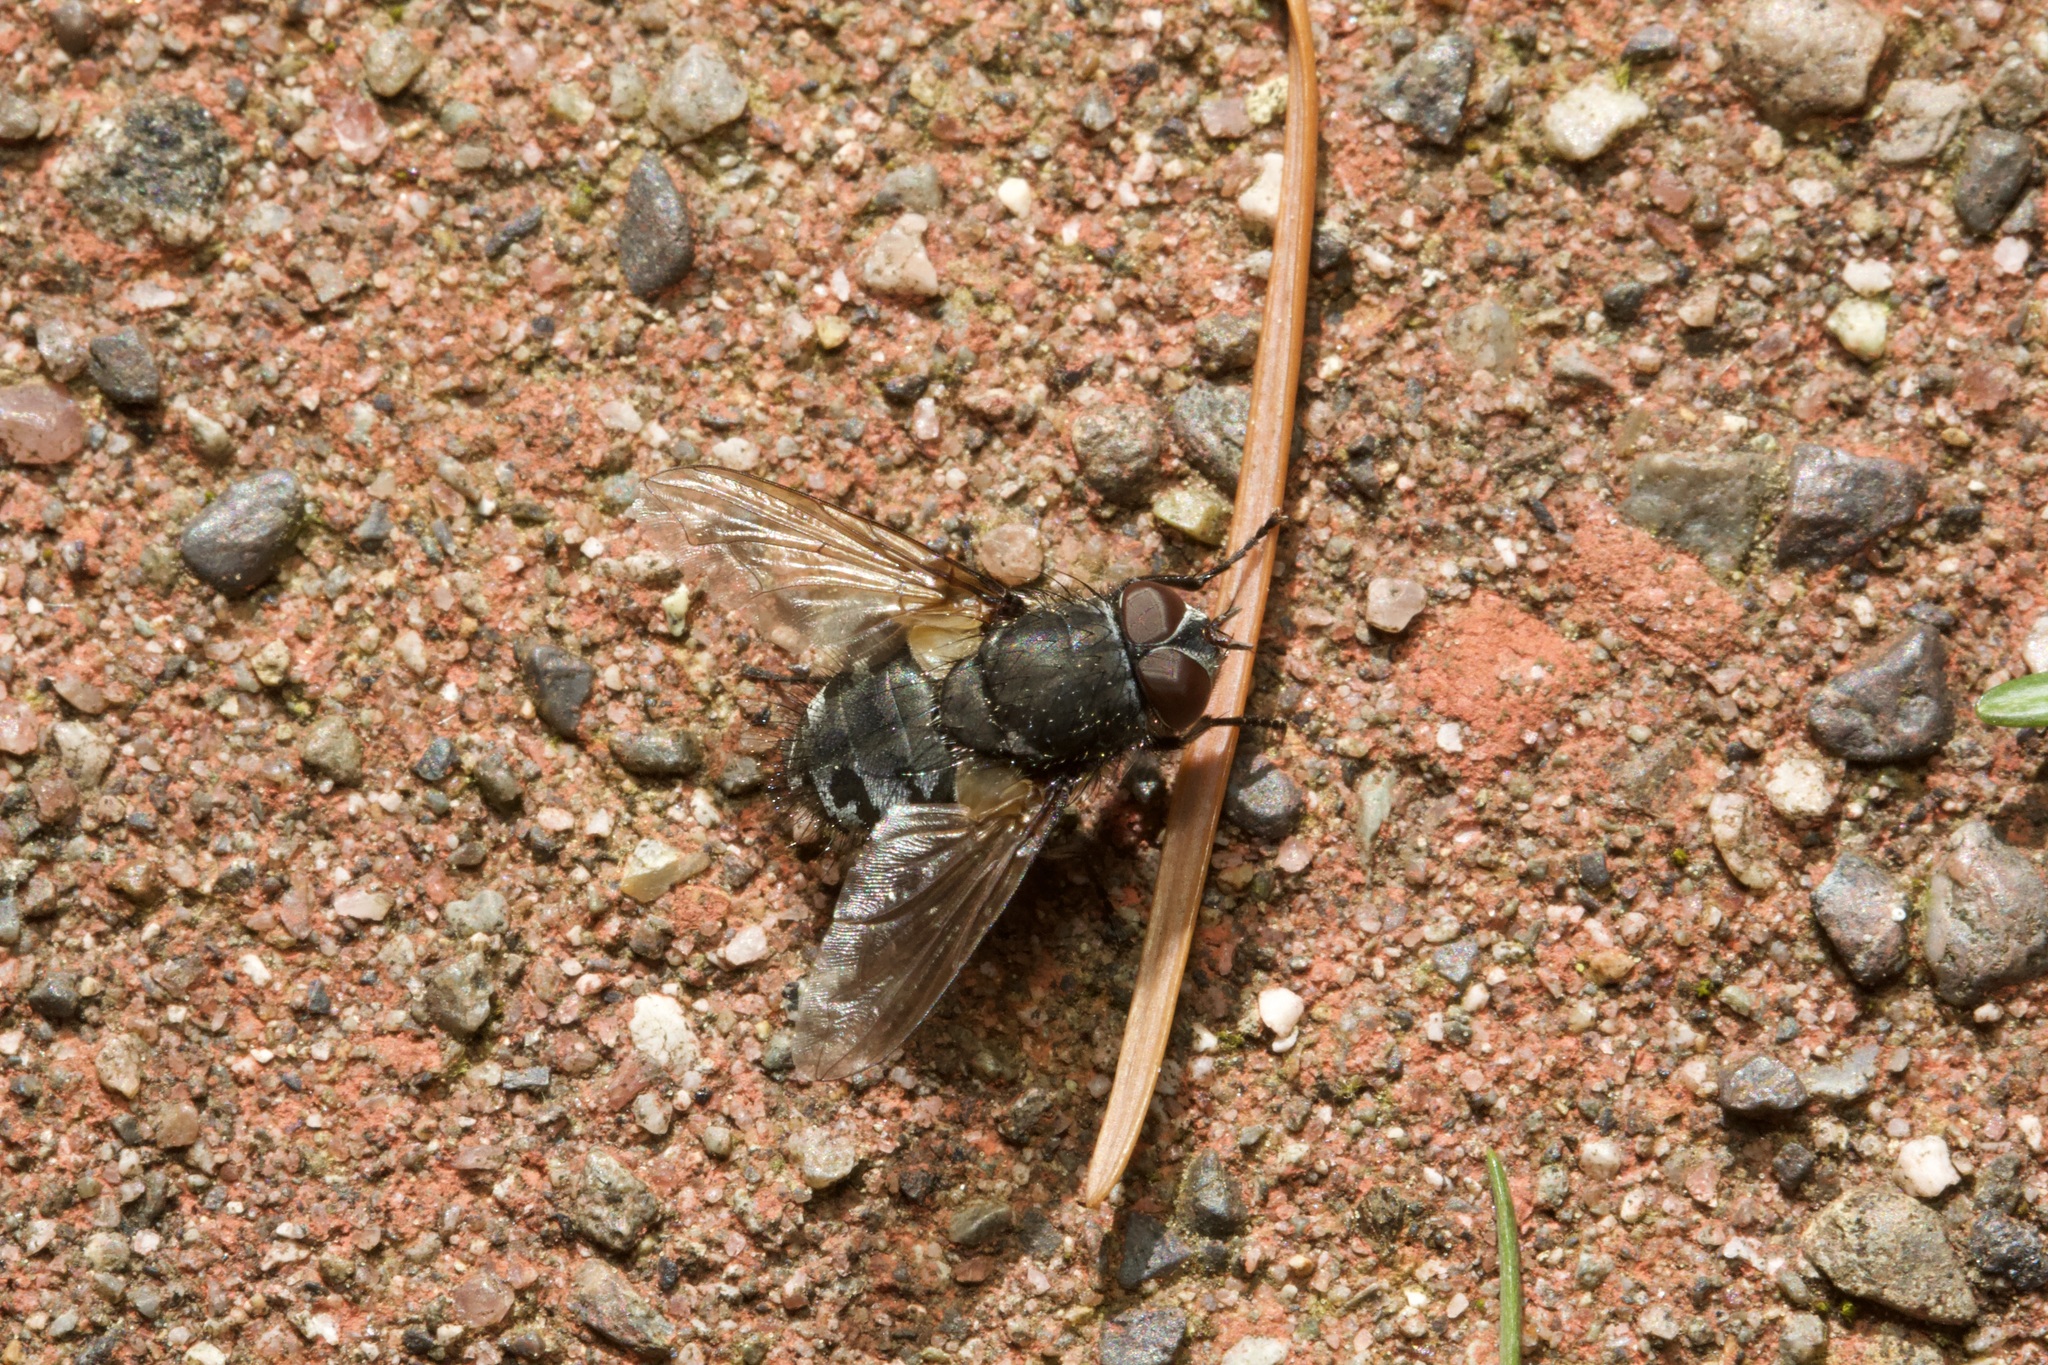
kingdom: Animalia
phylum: Arthropoda
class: Insecta
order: Diptera
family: Polleniidae
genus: Pollenia
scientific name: Pollenia
